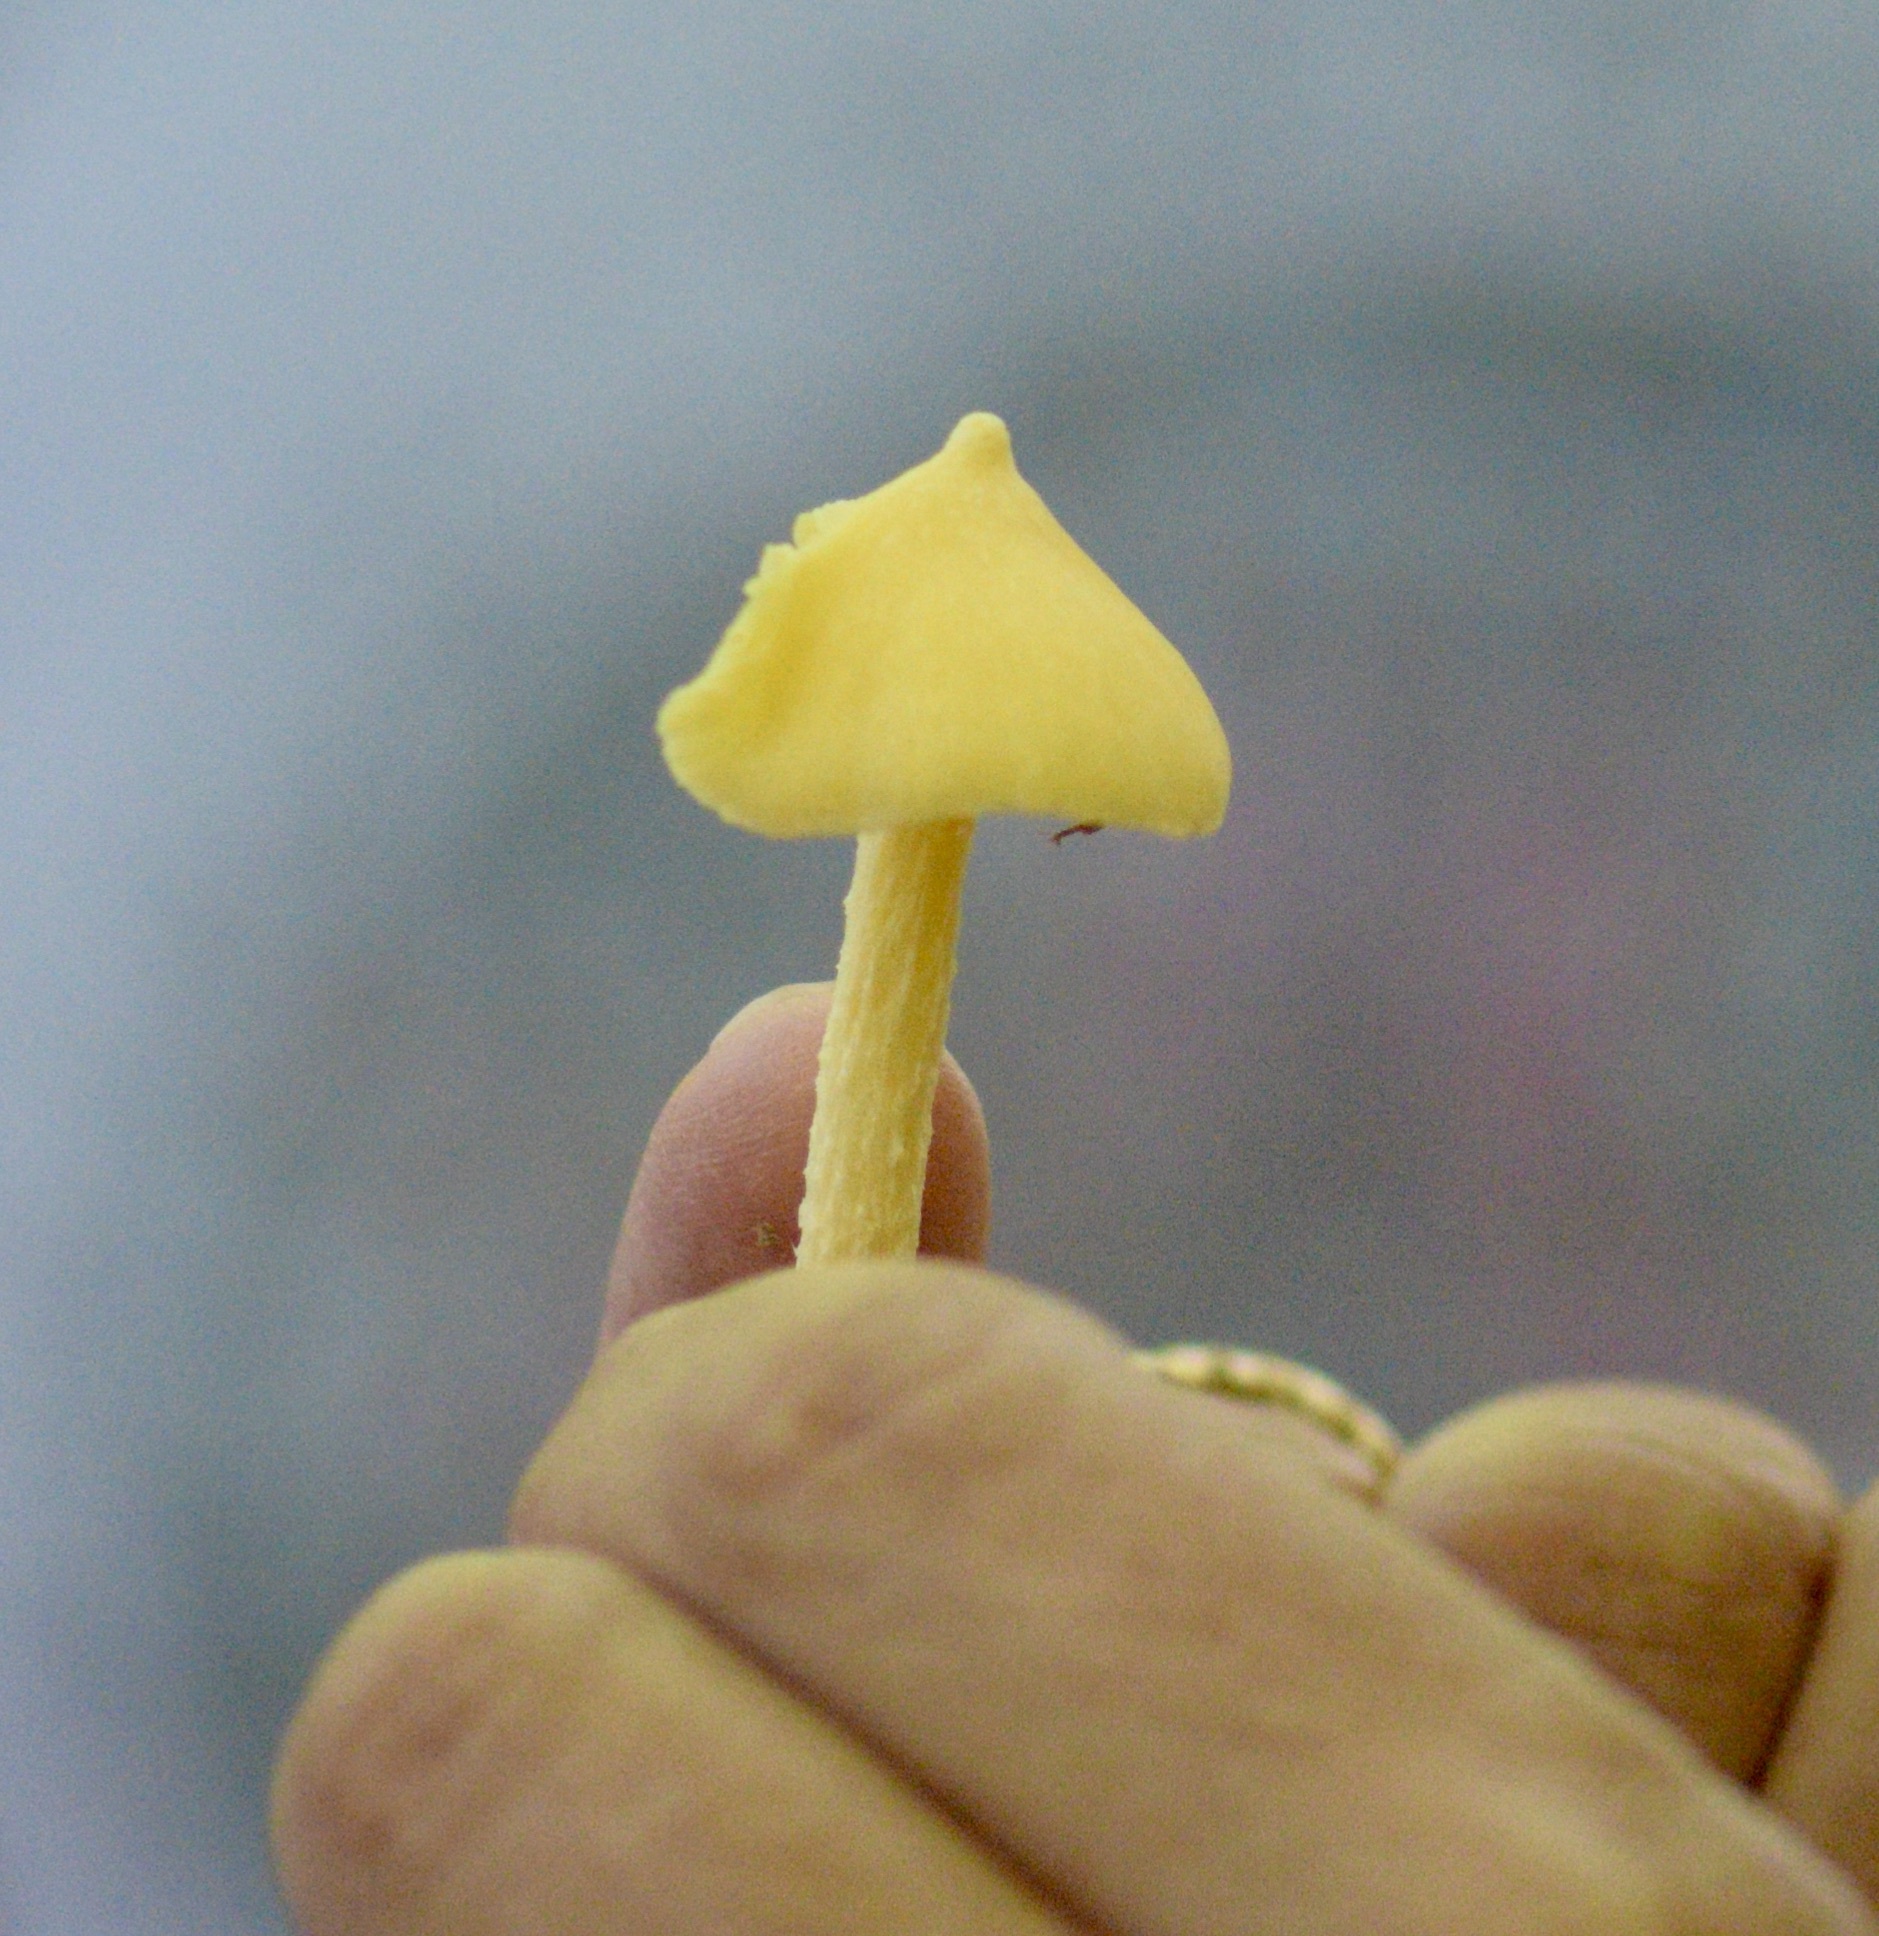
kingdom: Fungi
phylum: Basidiomycota
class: Agaricomycetes
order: Agaricales
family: Entolomataceae
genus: Entoloma
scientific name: Entoloma murrayi
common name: Yellow unicorn entoloma
